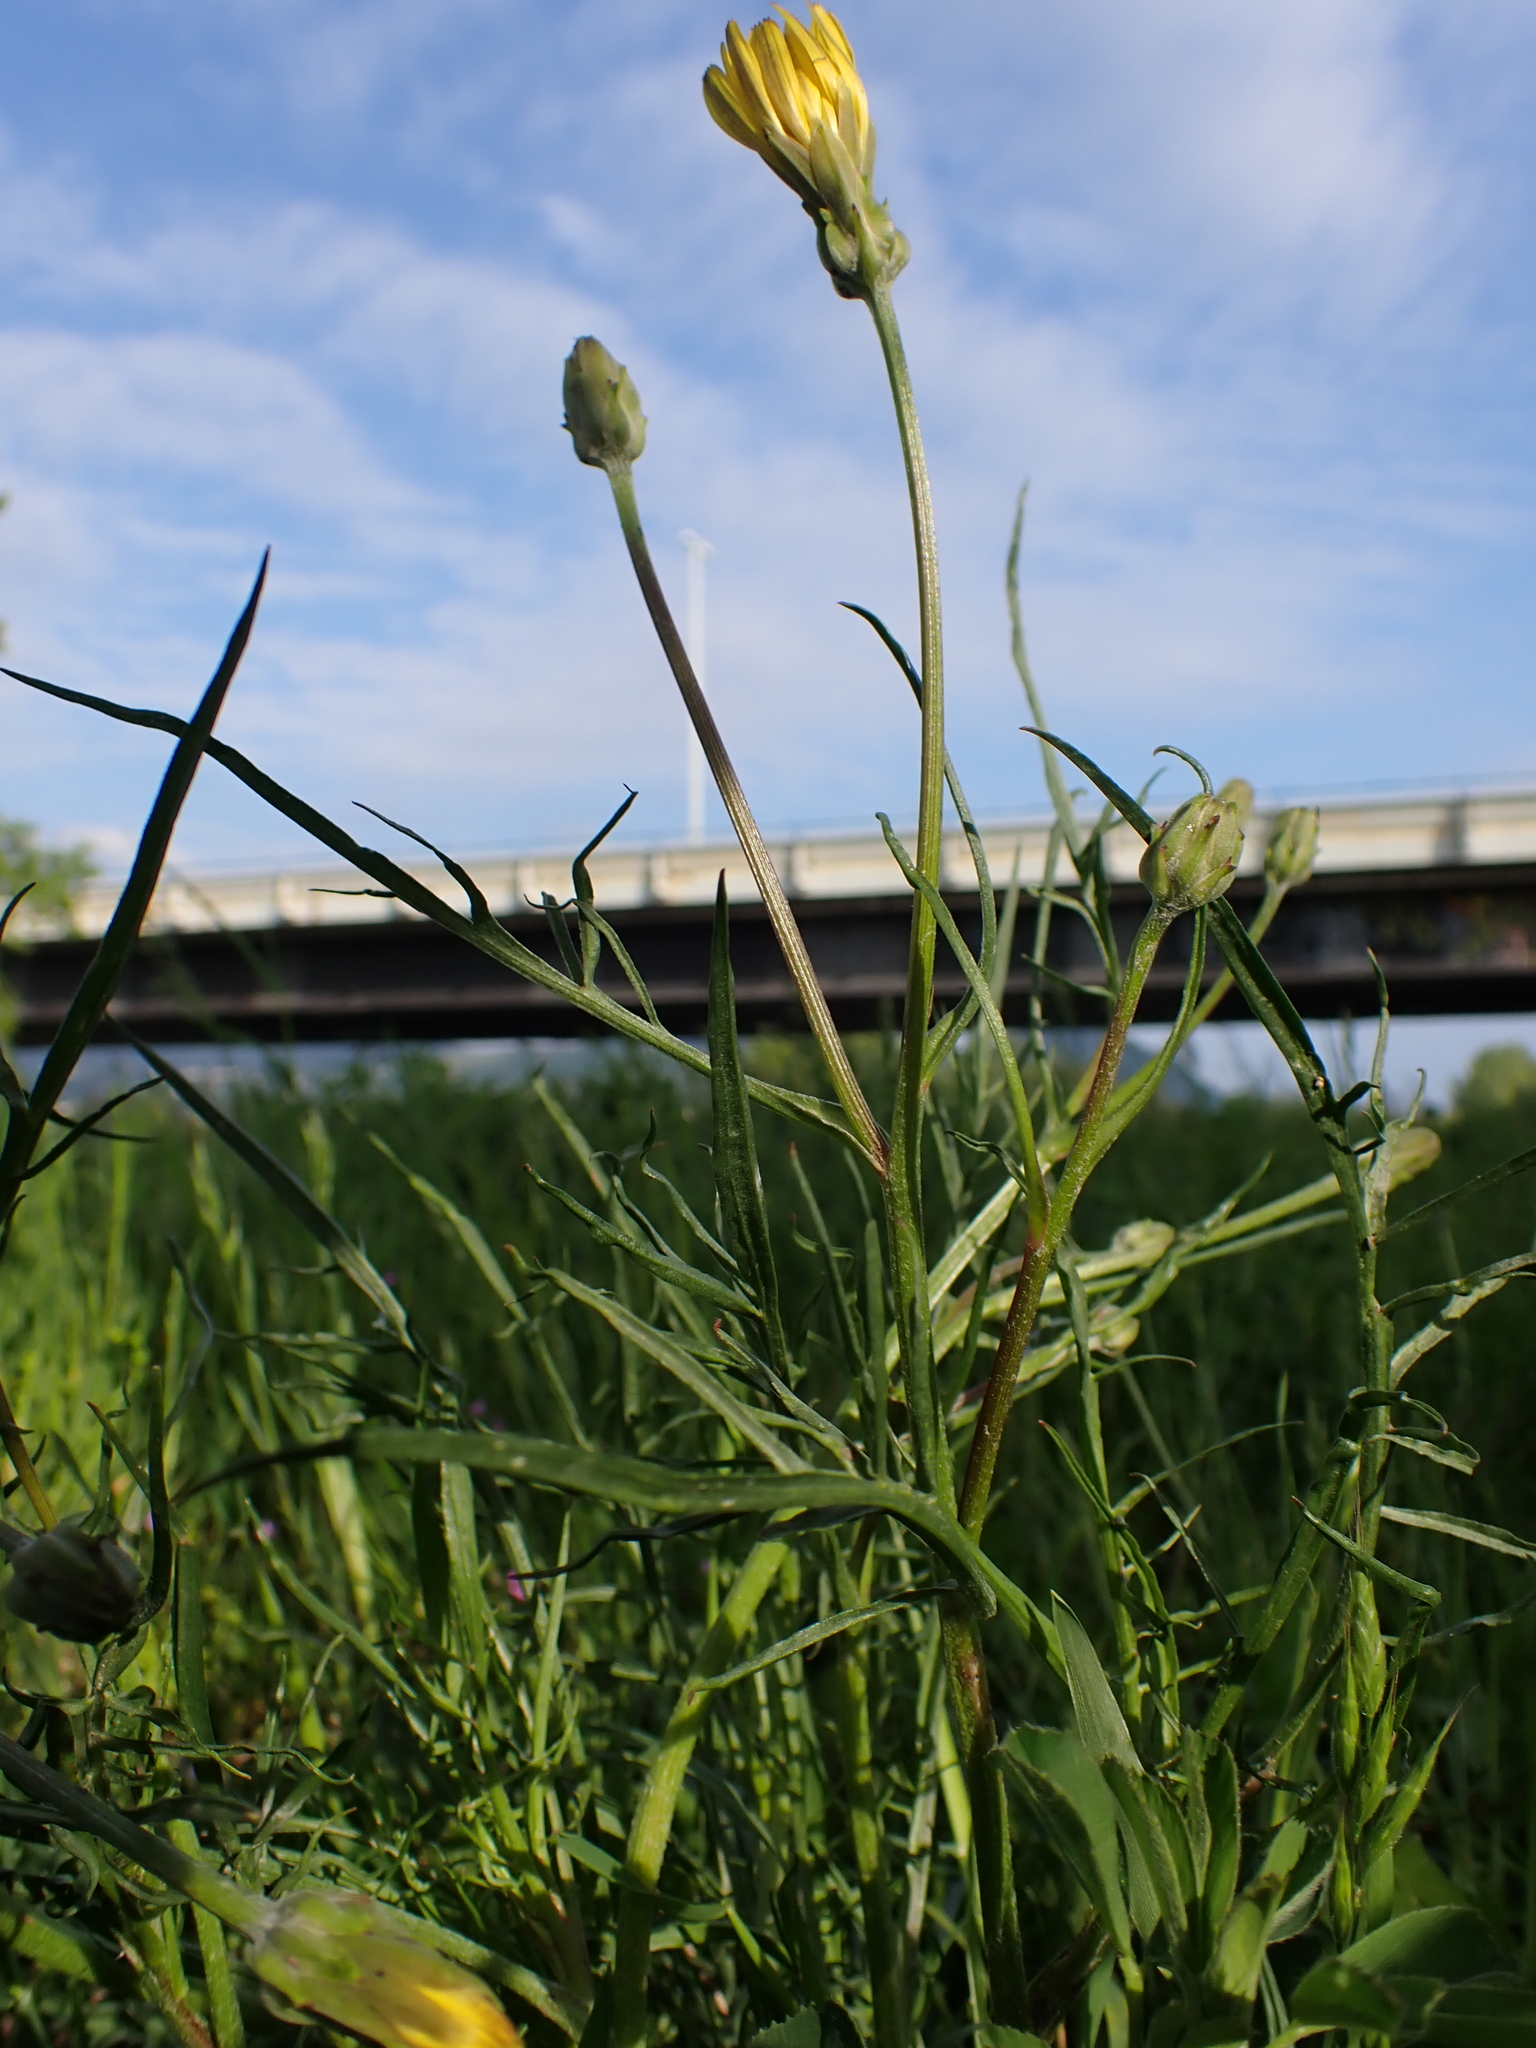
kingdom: Plantae
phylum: Tracheophyta
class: Magnoliopsida
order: Asterales
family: Asteraceae
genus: Scorzonera
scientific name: Scorzonera cana
